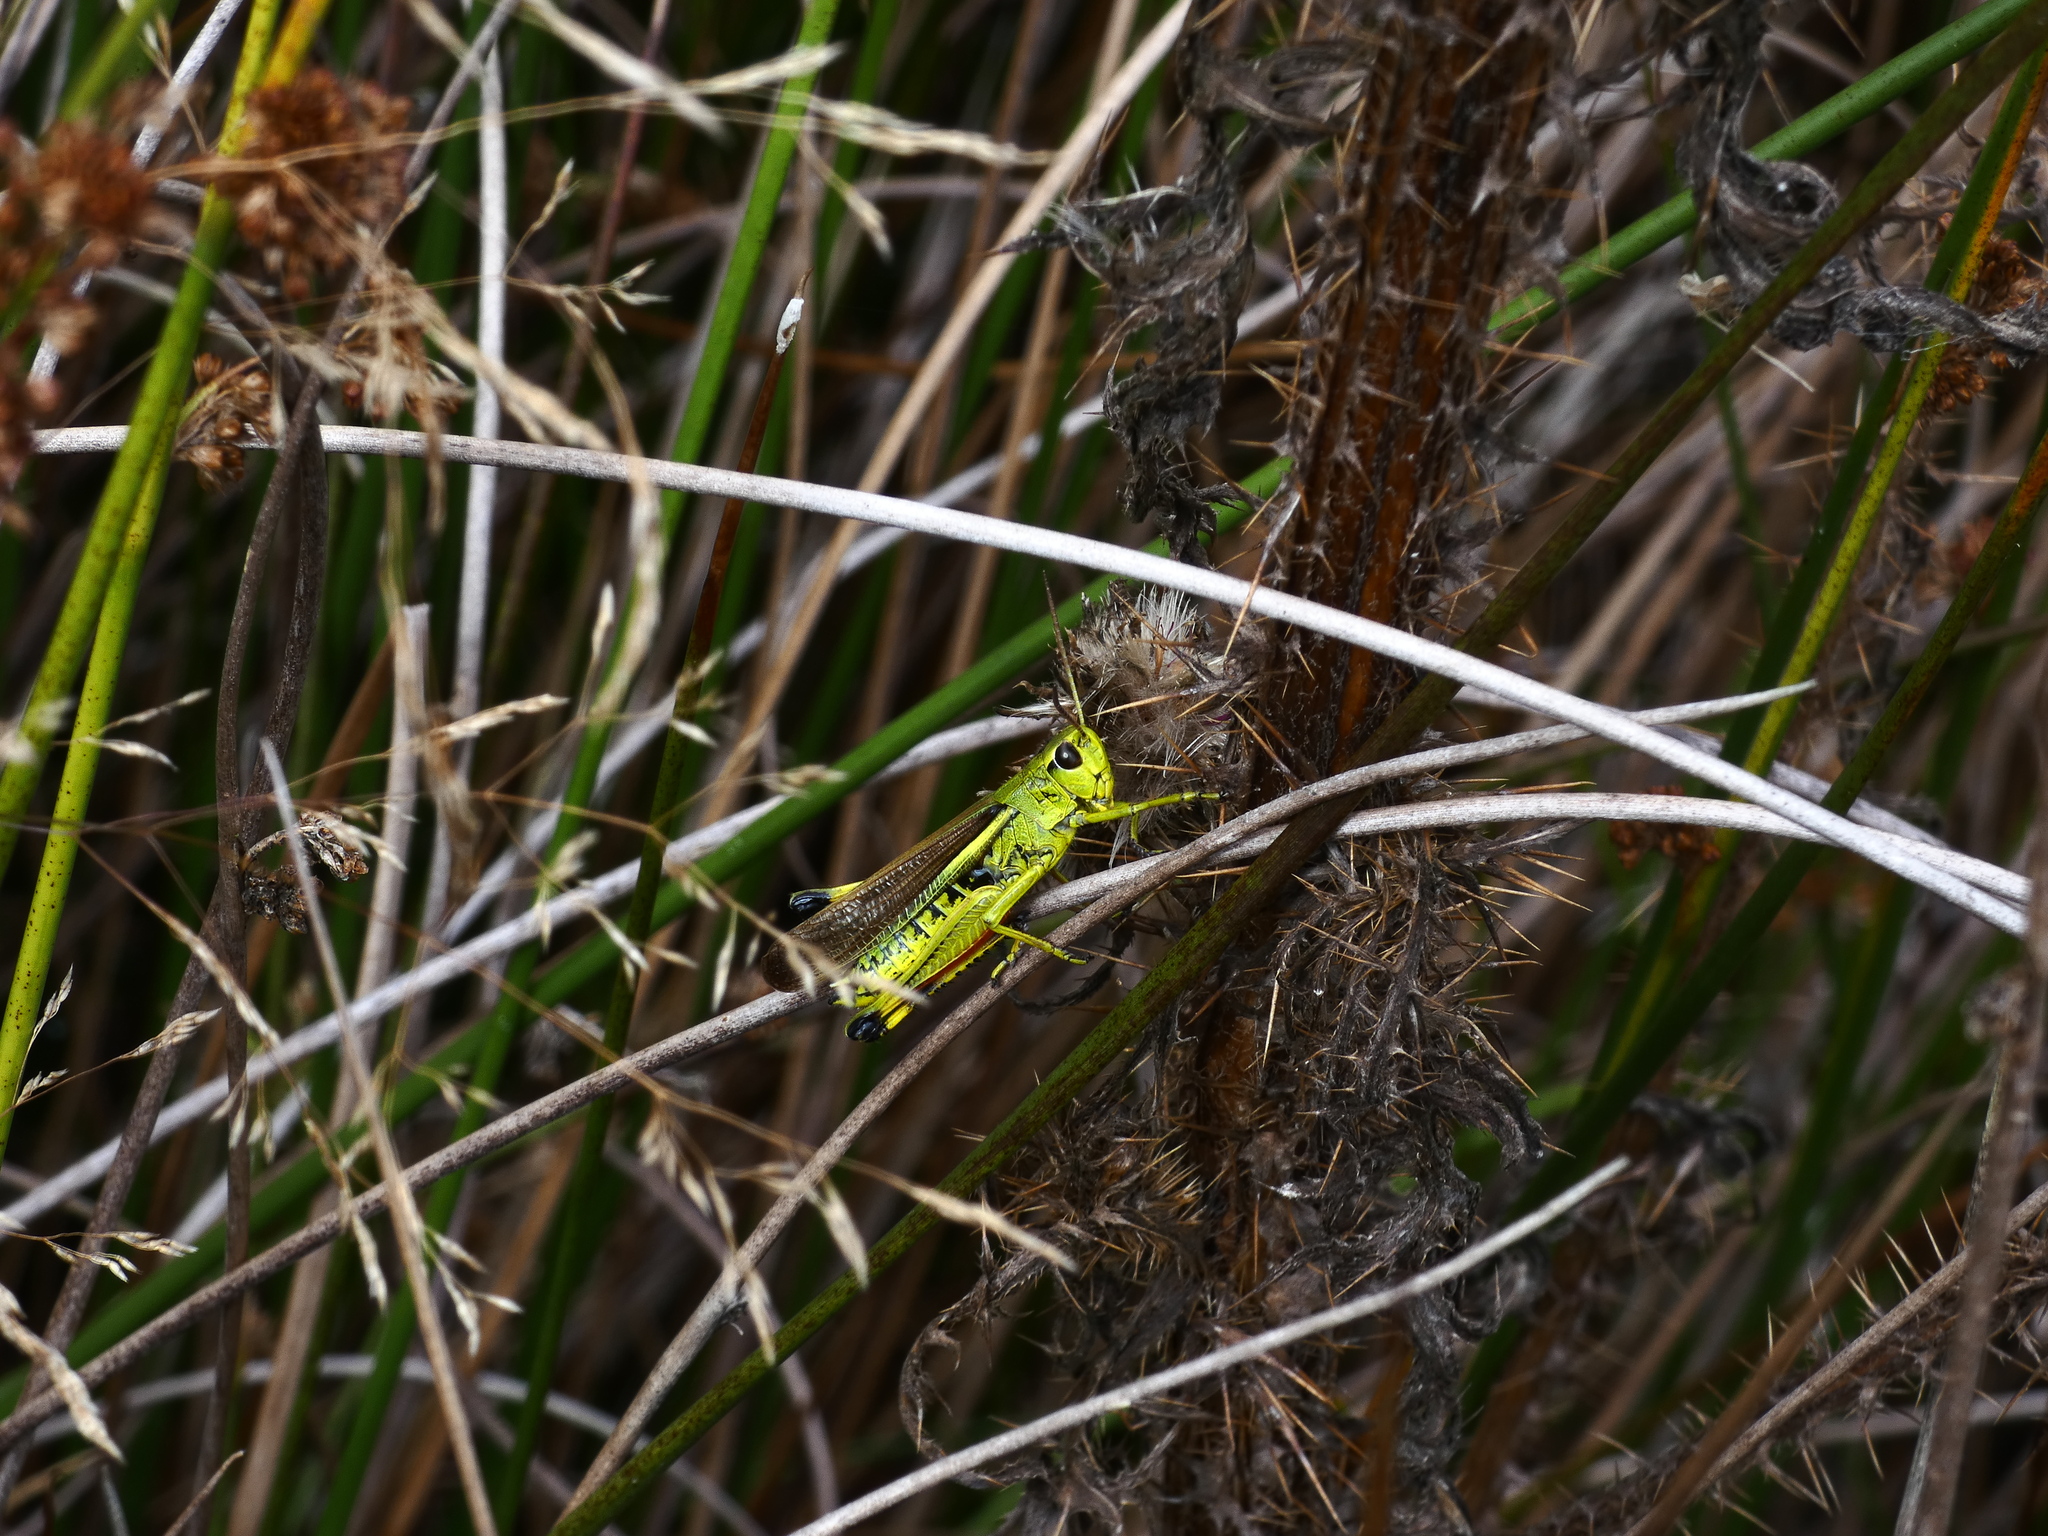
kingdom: Animalia
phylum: Arthropoda
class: Insecta
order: Orthoptera
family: Acrididae
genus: Stethophyma
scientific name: Stethophyma grossum
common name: Large marsh grasshopper
